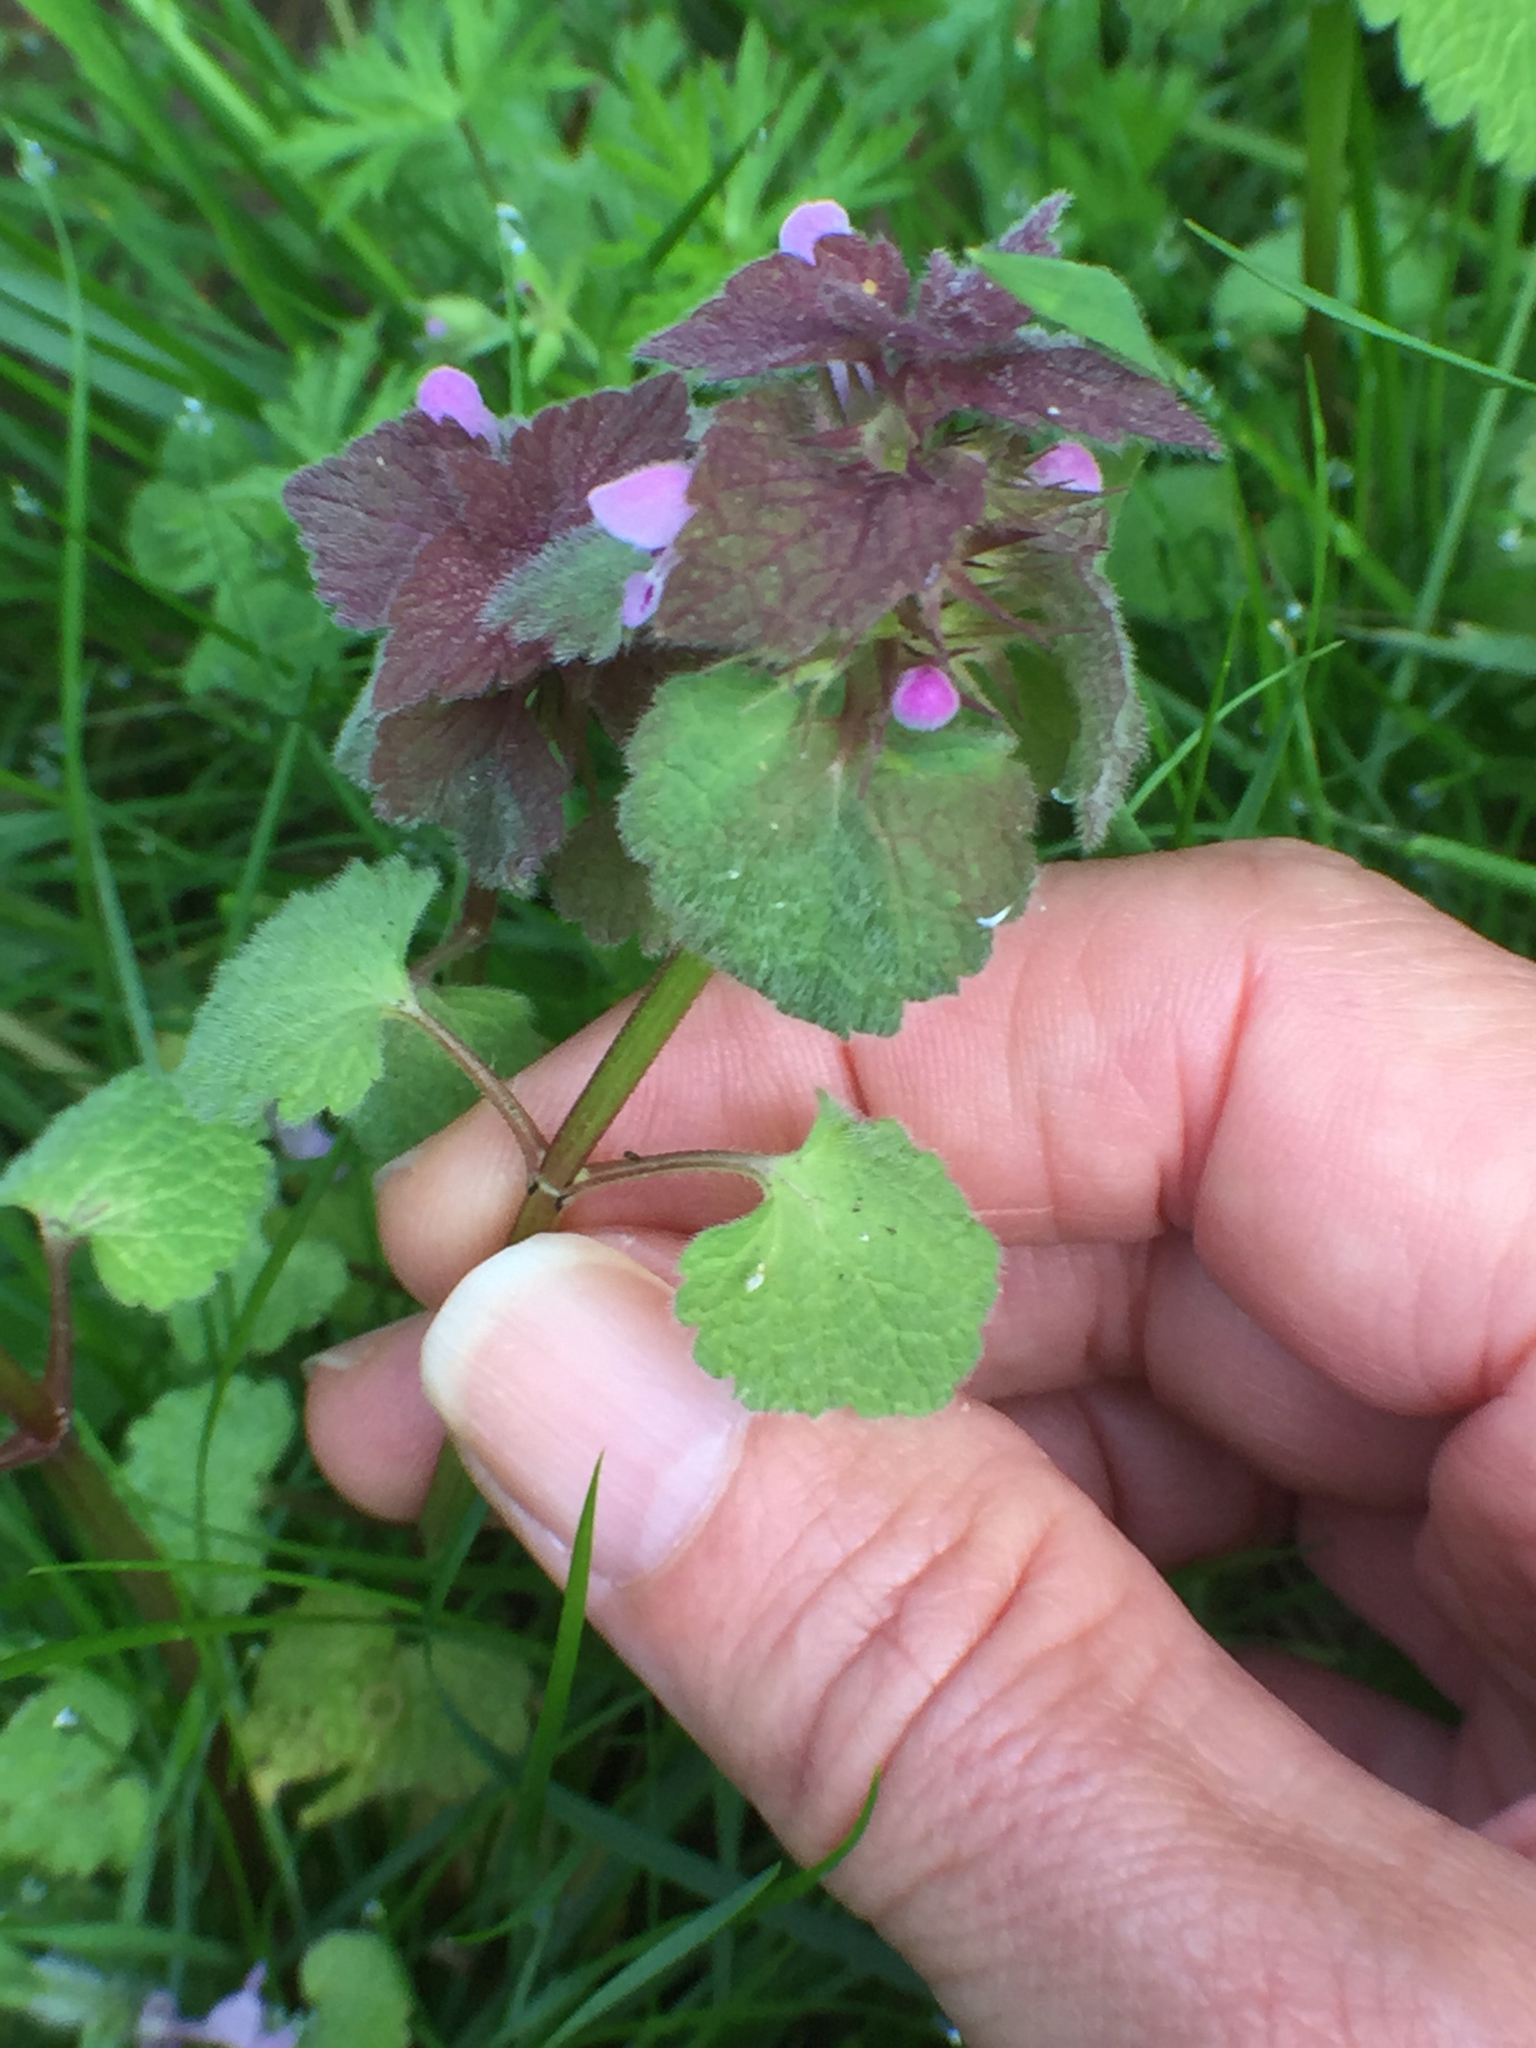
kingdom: Plantae
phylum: Tracheophyta
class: Magnoliopsida
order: Lamiales
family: Lamiaceae
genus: Lamium
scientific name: Lamium purpureum
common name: Red dead-nettle
